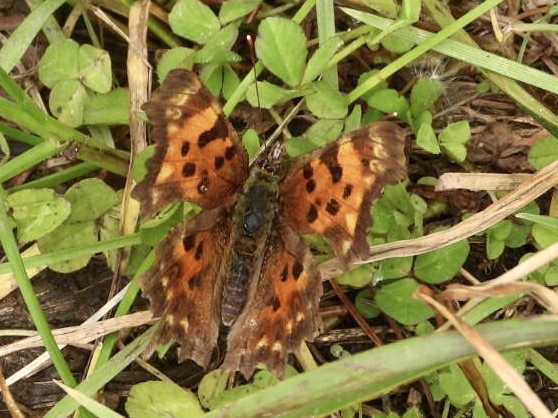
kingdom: Animalia
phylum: Arthropoda
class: Insecta
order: Lepidoptera
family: Nymphalidae
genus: Polygonia
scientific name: Polygonia faunus
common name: Green comma
